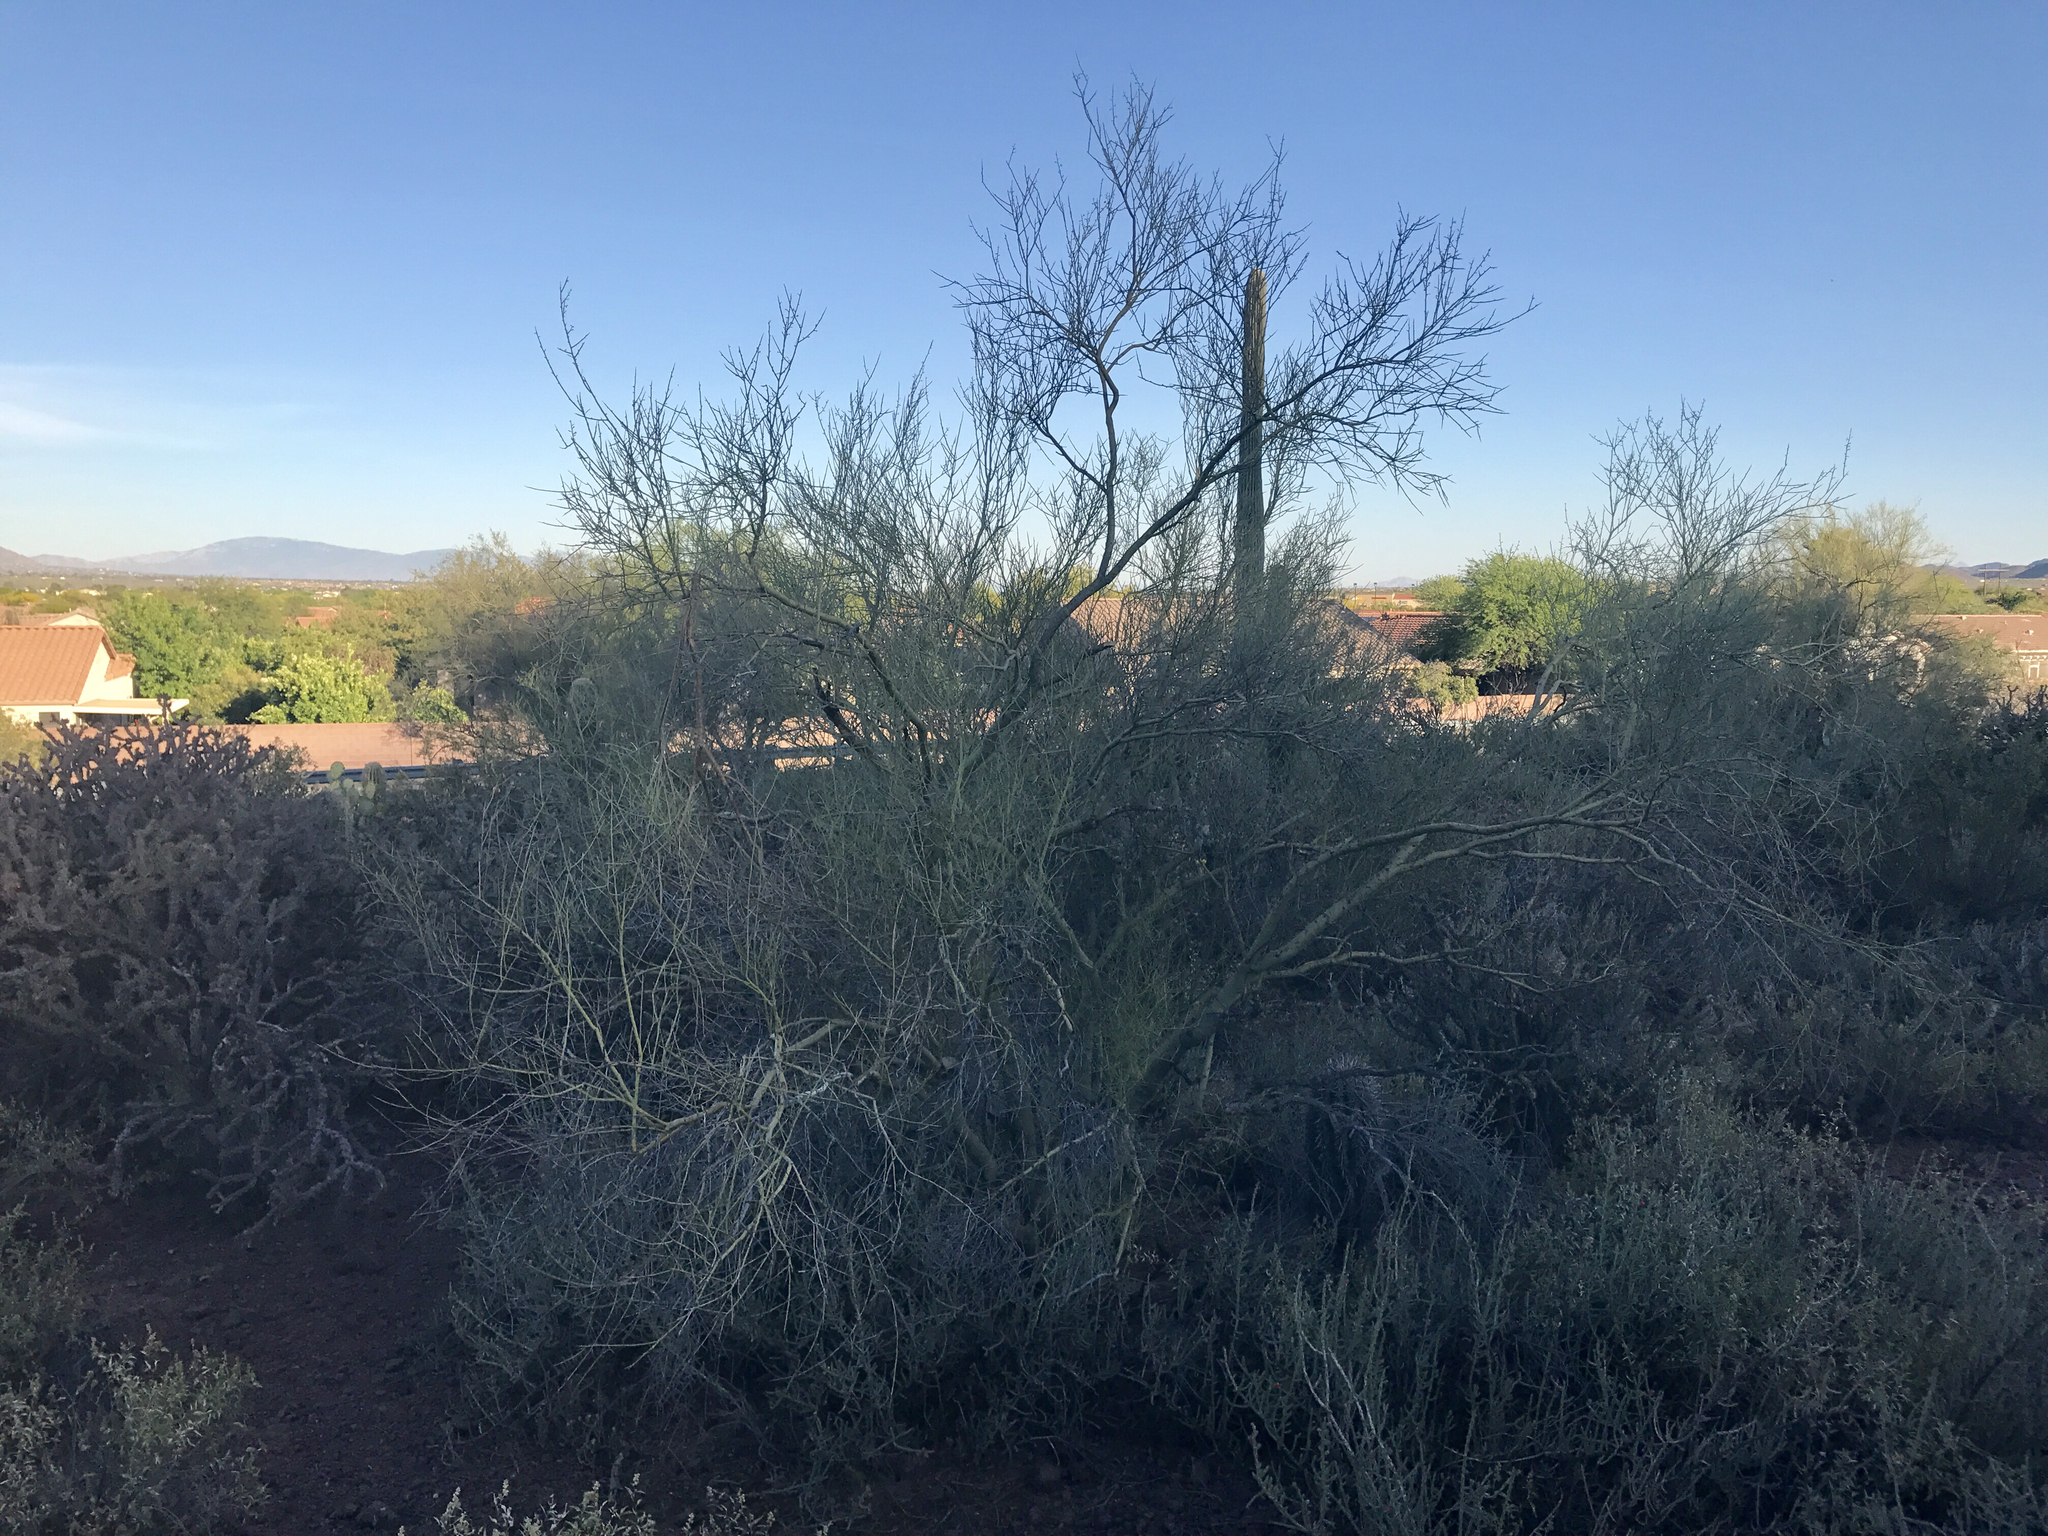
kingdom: Plantae
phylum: Tracheophyta
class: Magnoliopsida
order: Fabales
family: Fabaceae
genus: Parkinsonia
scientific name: Parkinsonia microphylla
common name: Yellow paloverde
